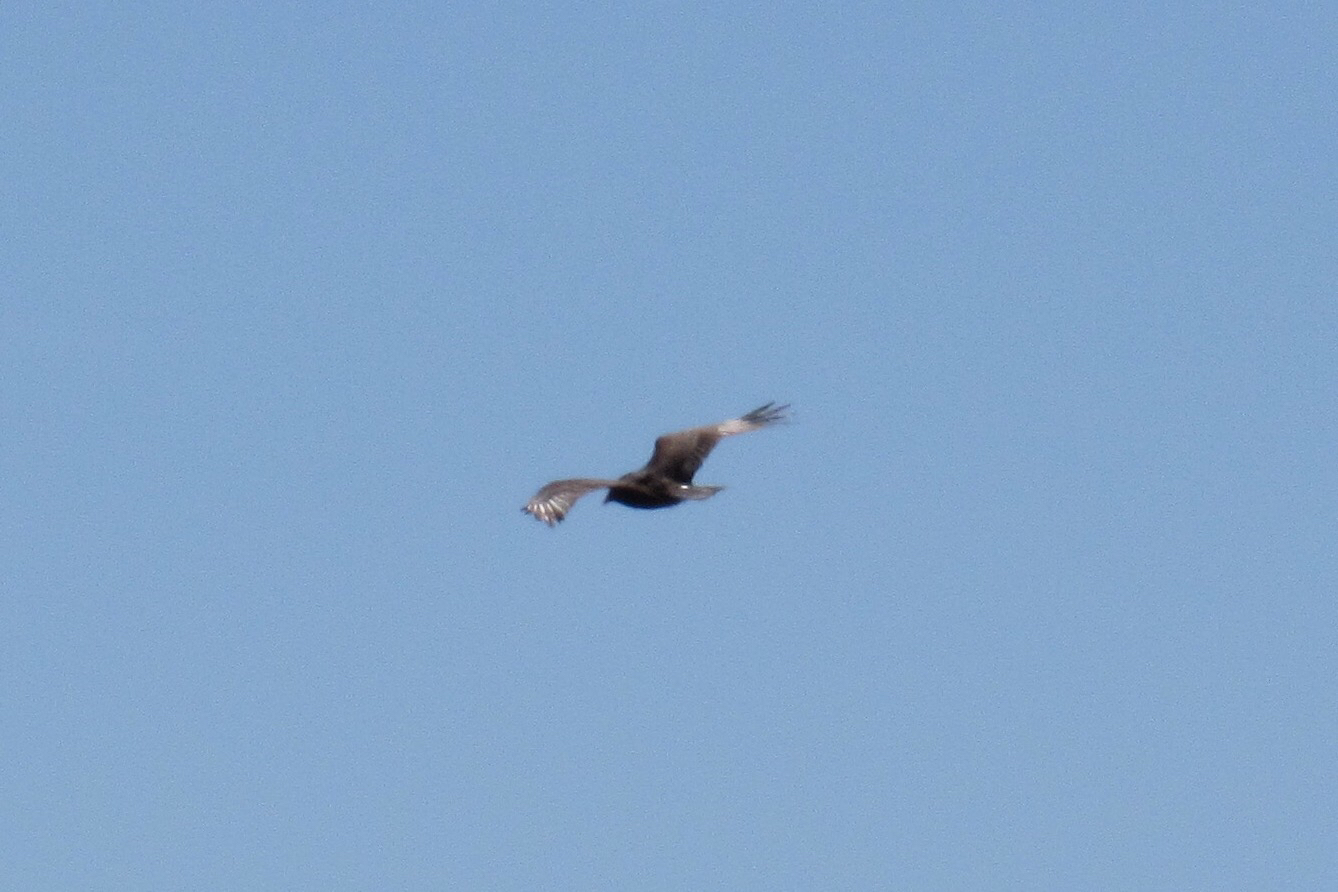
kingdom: Animalia
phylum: Chordata
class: Aves
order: Accipitriformes
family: Cathartidae
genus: Cathartes
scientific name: Cathartes aura
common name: Turkey vulture
